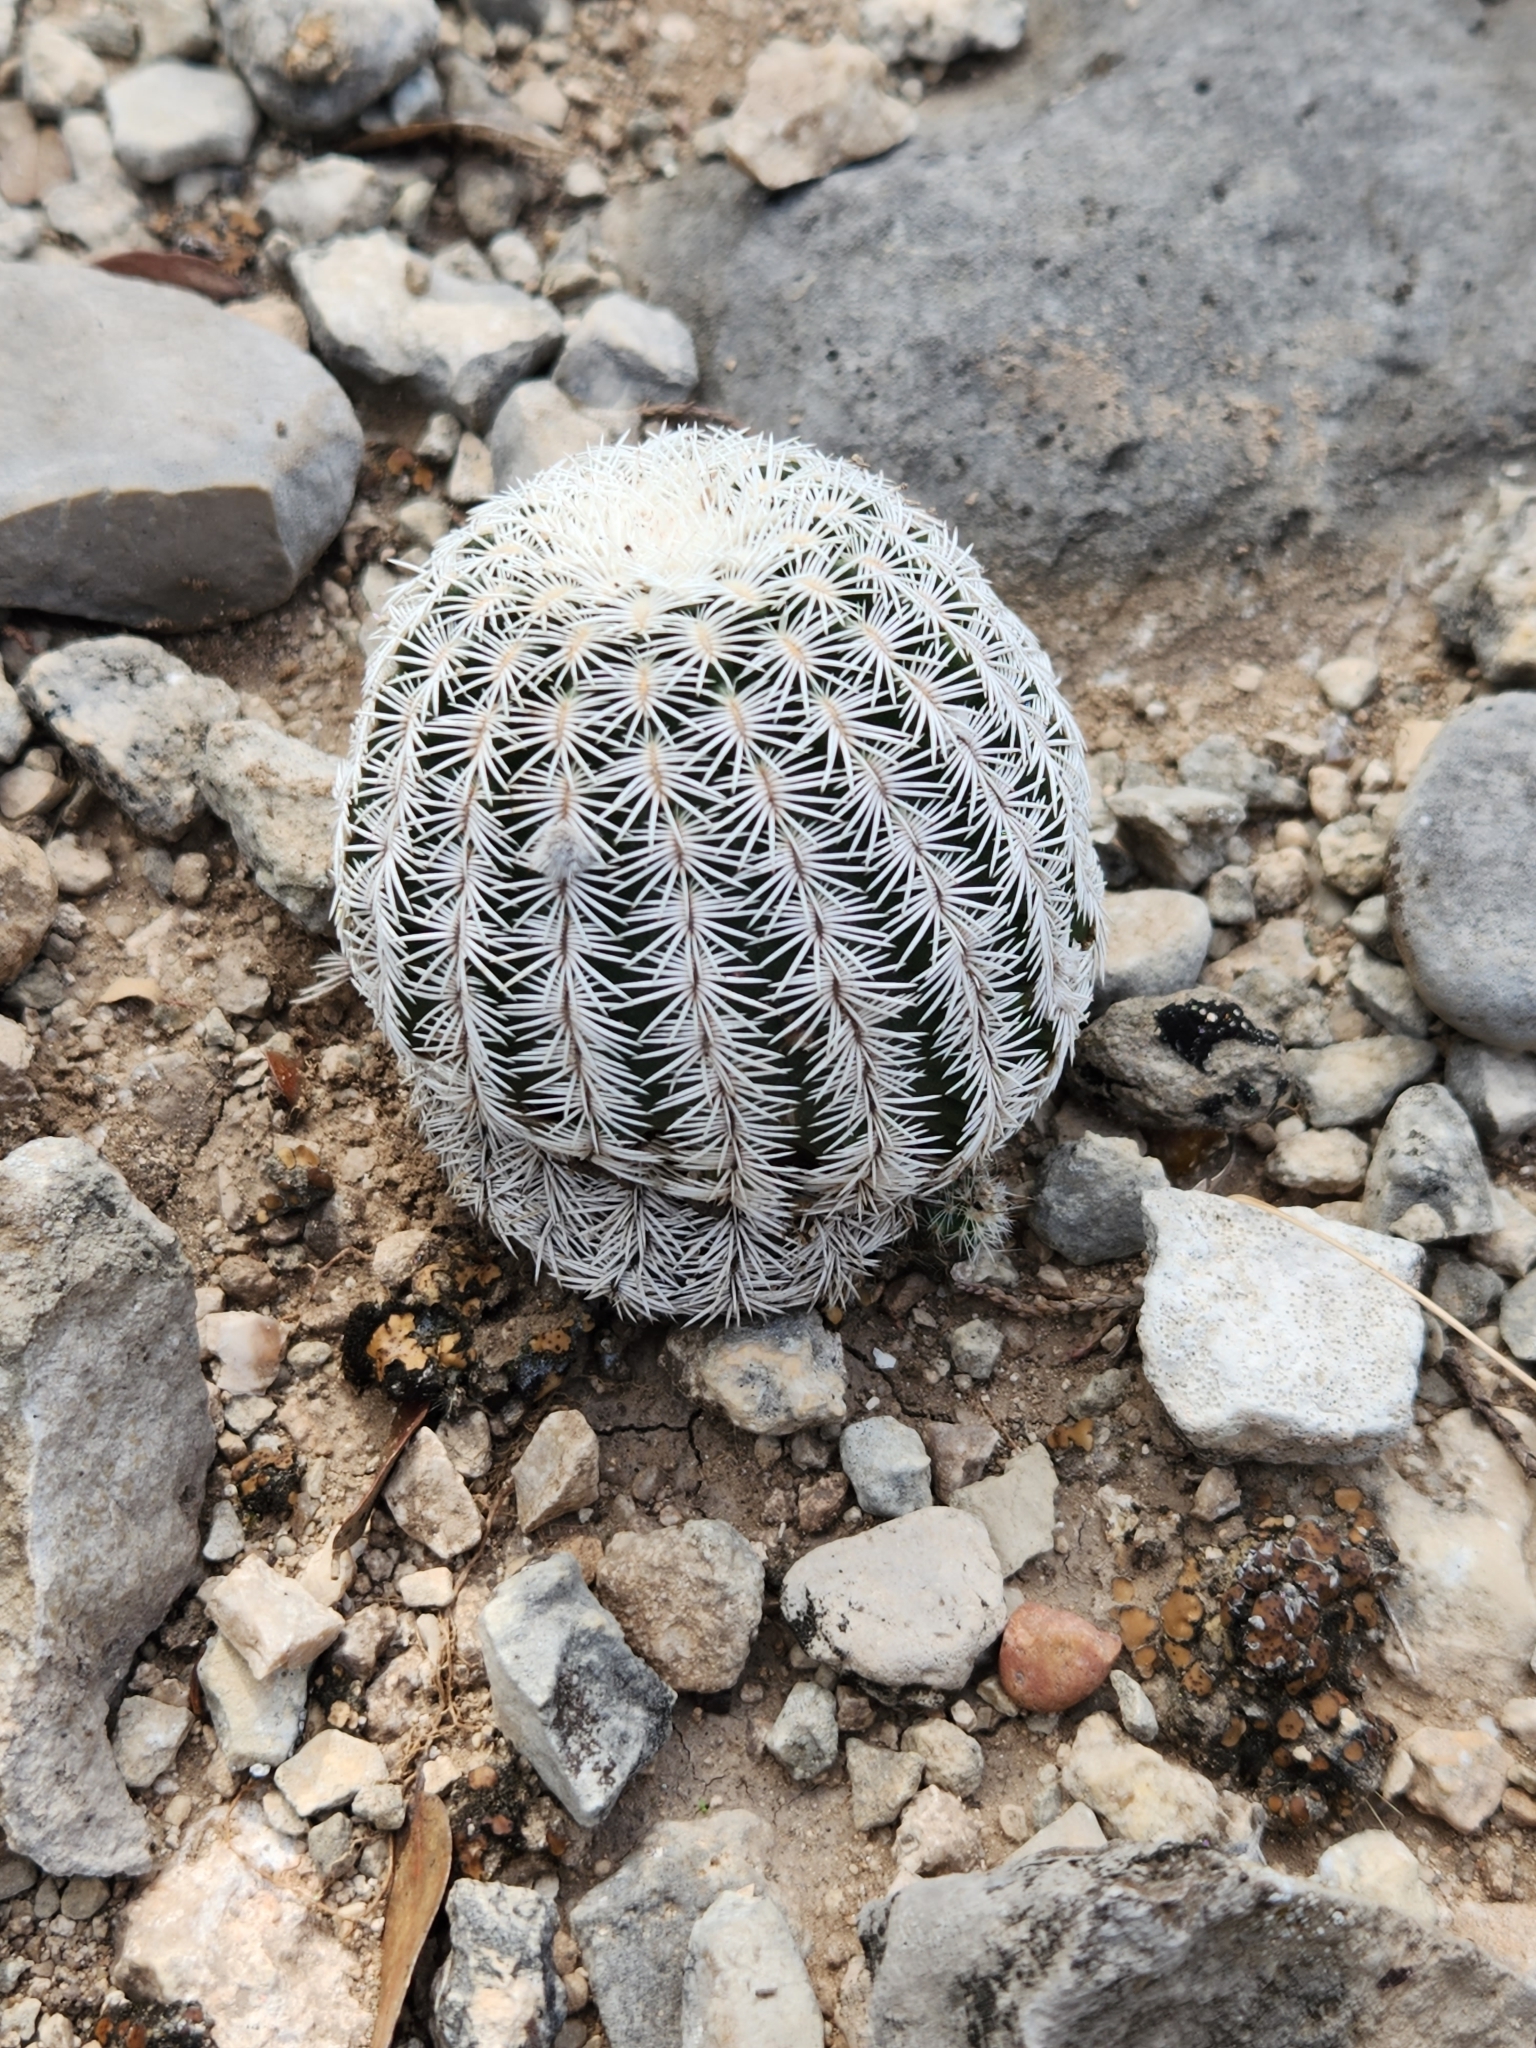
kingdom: Plantae
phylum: Tracheophyta
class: Magnoliopsida
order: Caryophyllales
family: Cactaceae
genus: Echinocereus
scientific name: Echinocereus reichenbachii
